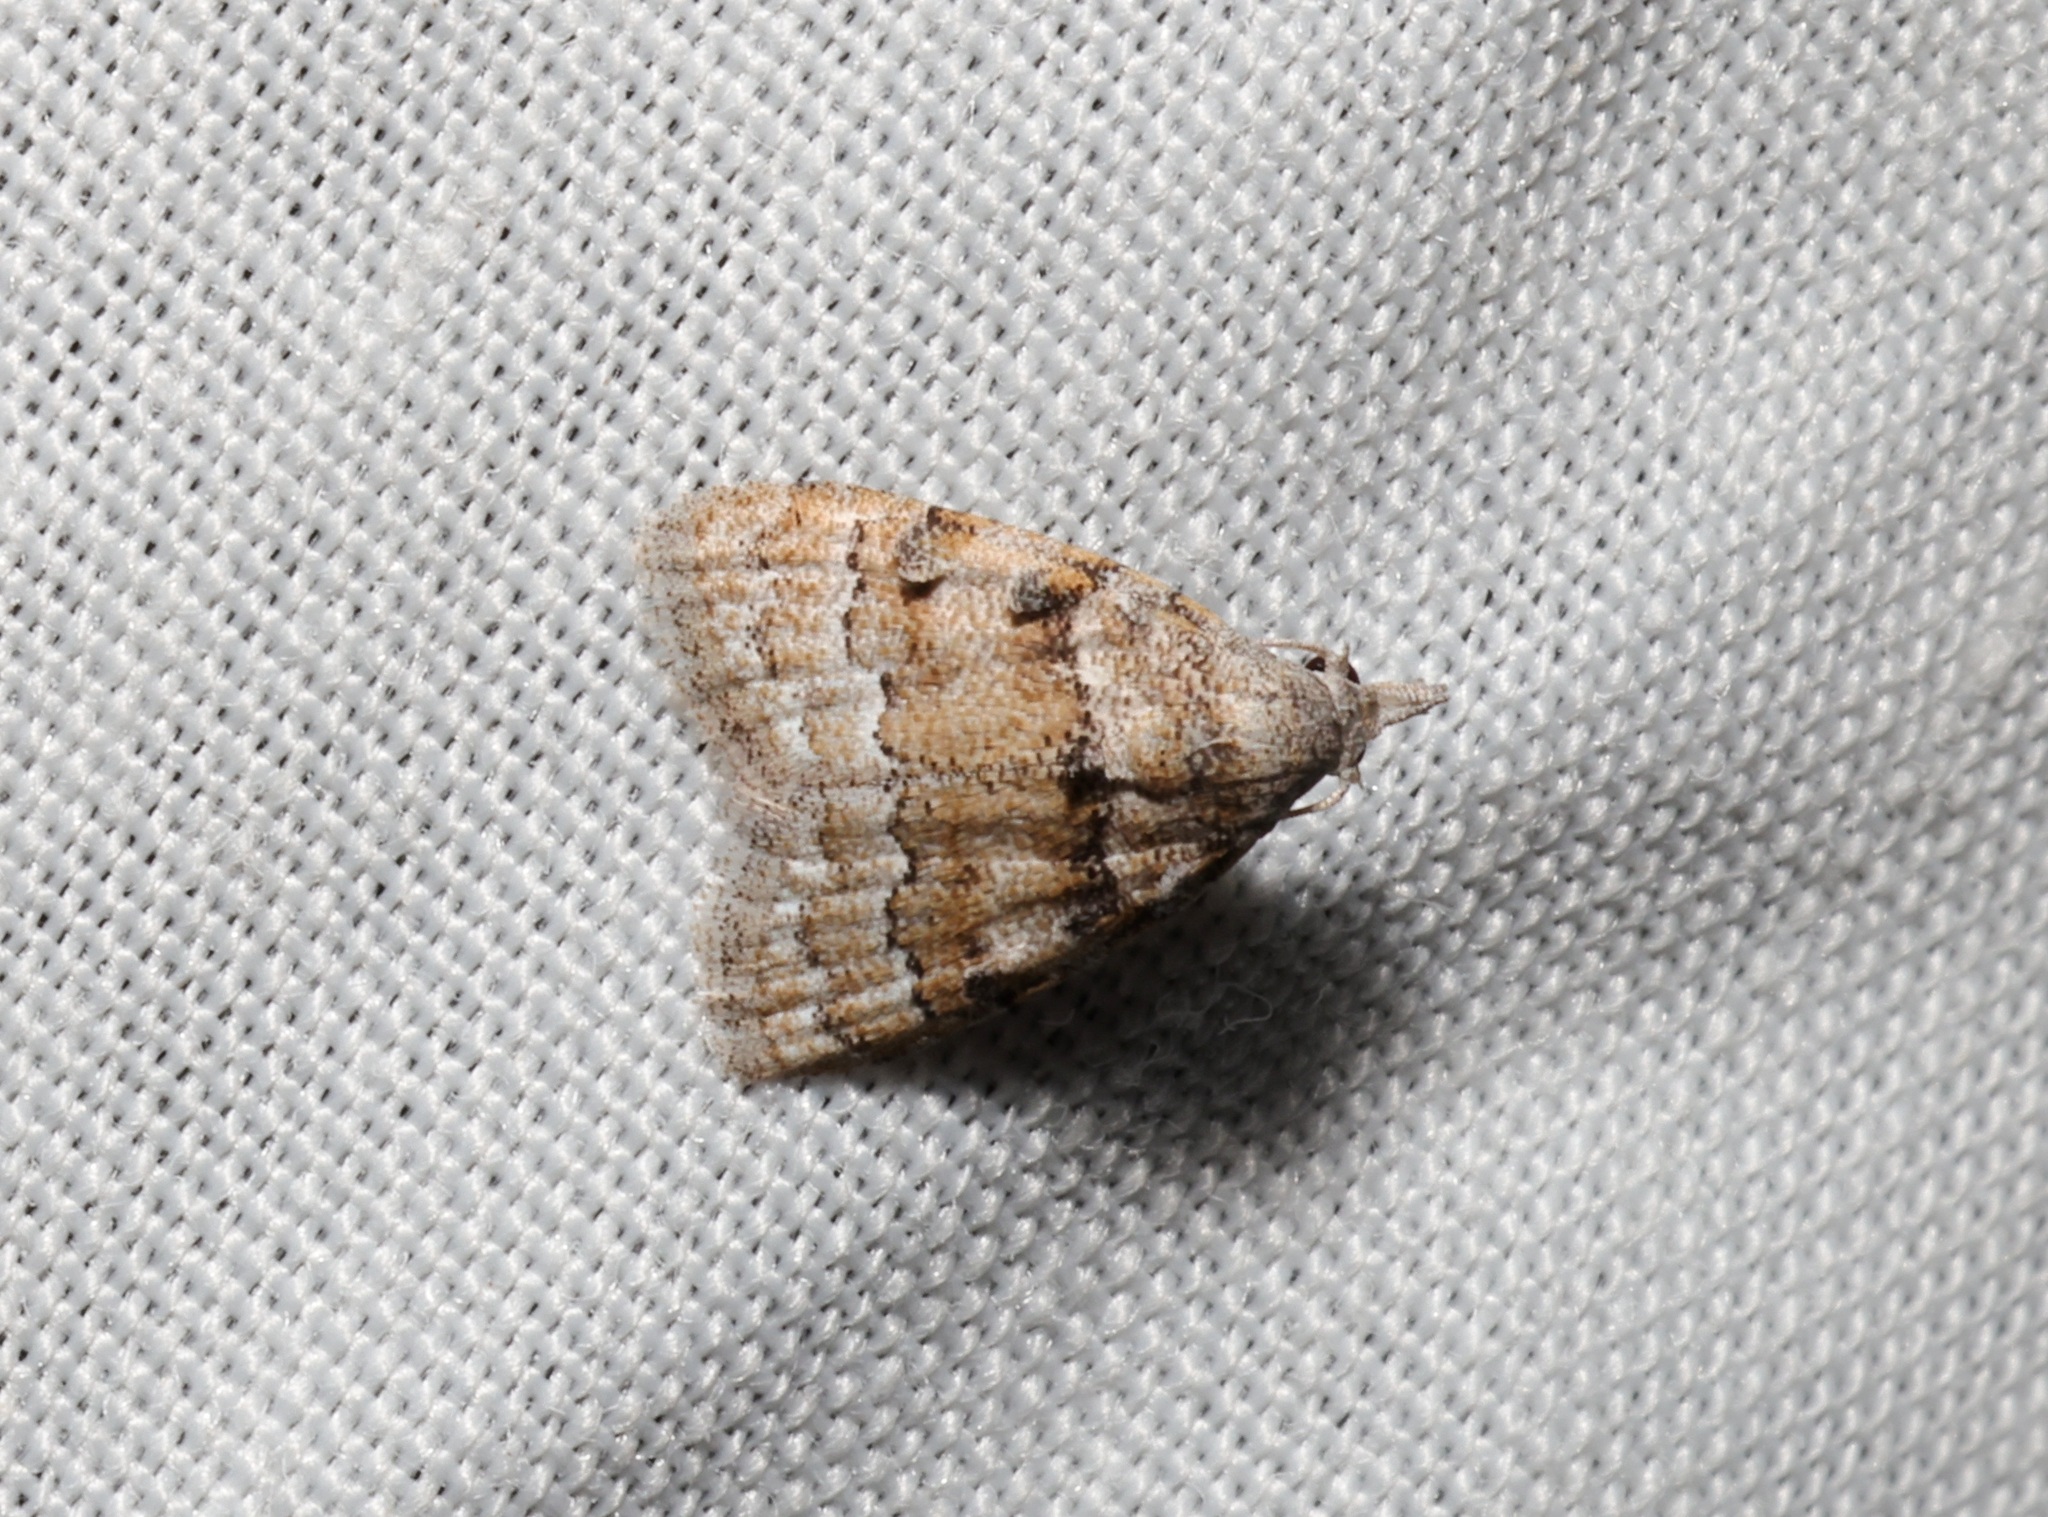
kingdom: Animalia
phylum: Arthropoda
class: Insecta
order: Lepidoptera
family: Nolidae
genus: Nola
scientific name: Nola bifascialis
